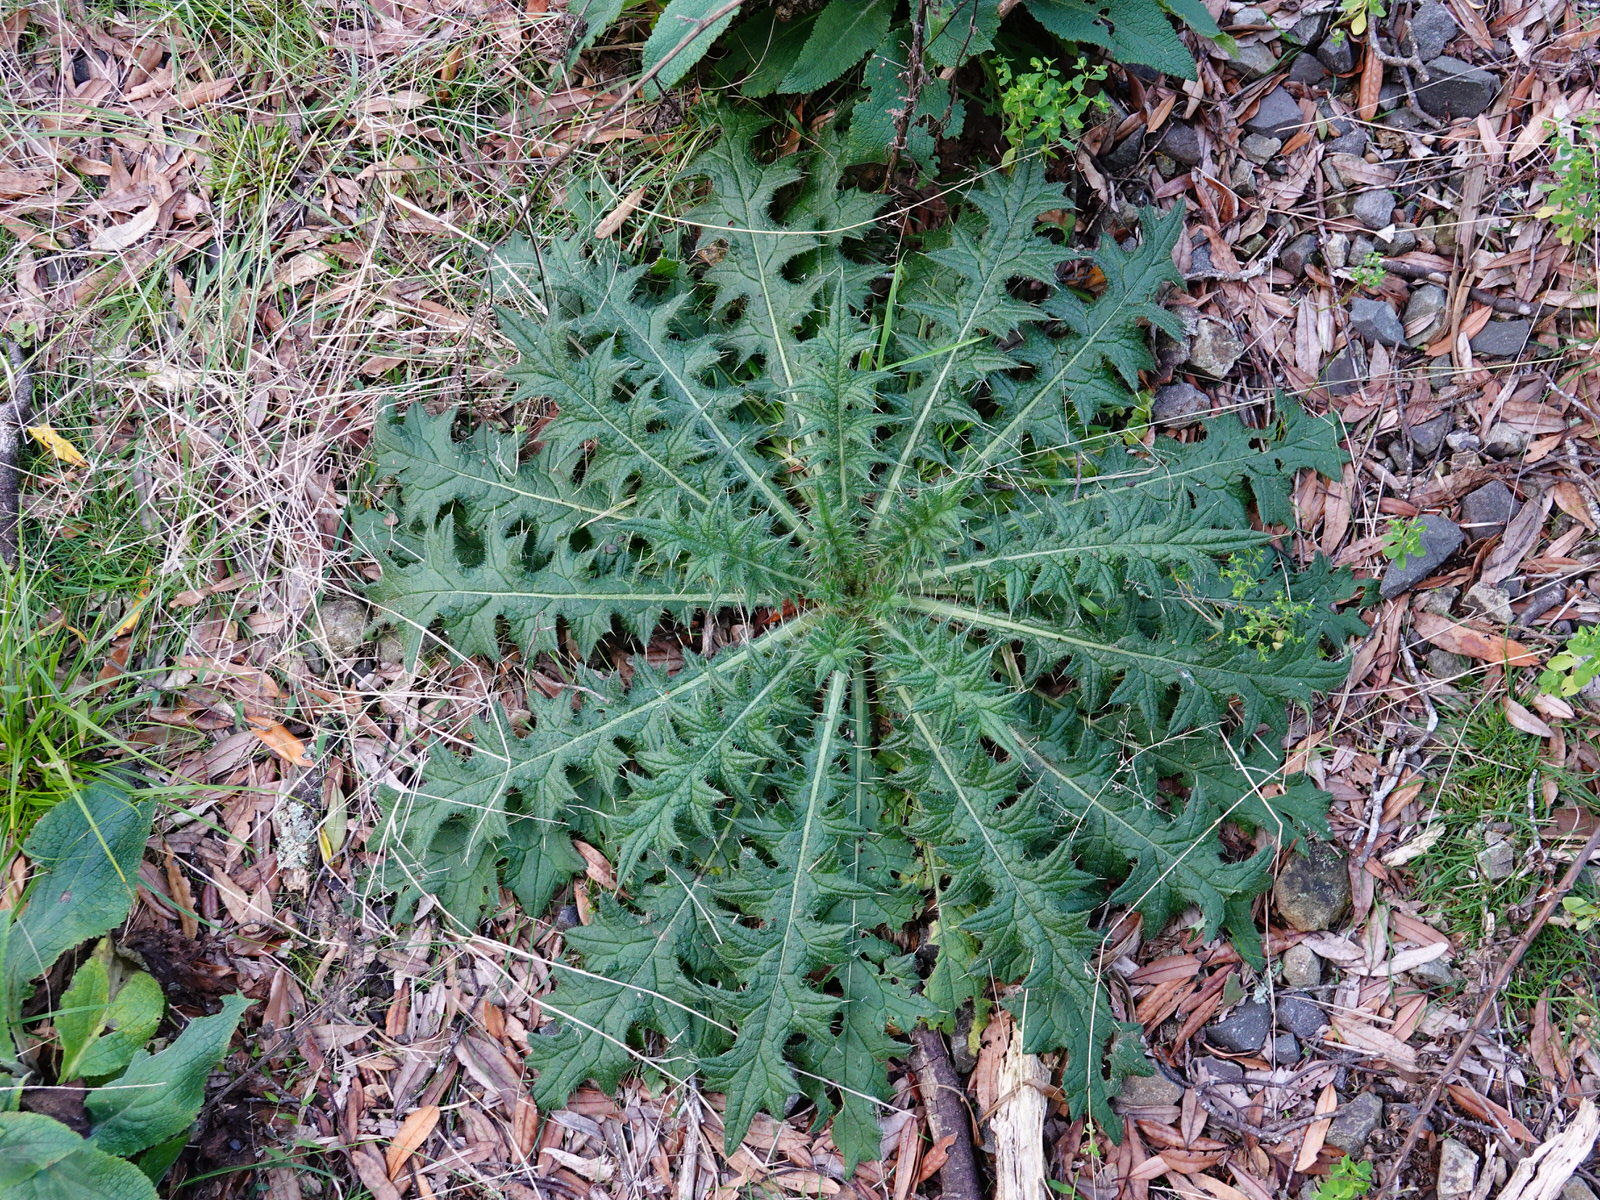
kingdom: Plantae
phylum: Tracheophyta
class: Magnoliopsida
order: Asterales
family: Asteraceae
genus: Cirsium
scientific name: Cirsium vulgare
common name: Bull thistle
